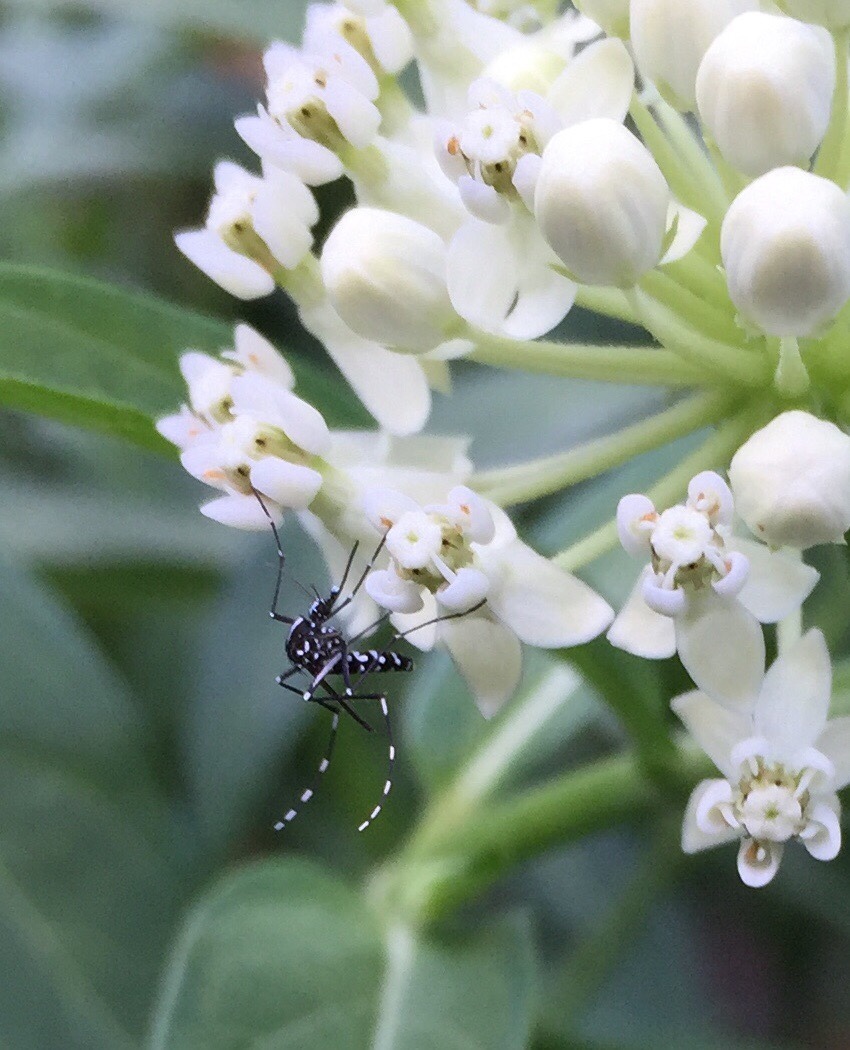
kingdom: Animalia
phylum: Arthropoda
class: Insecta
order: Diptera
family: Culicidae
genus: Aedes
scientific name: Aedes albopictus
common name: Tiger mosquito
